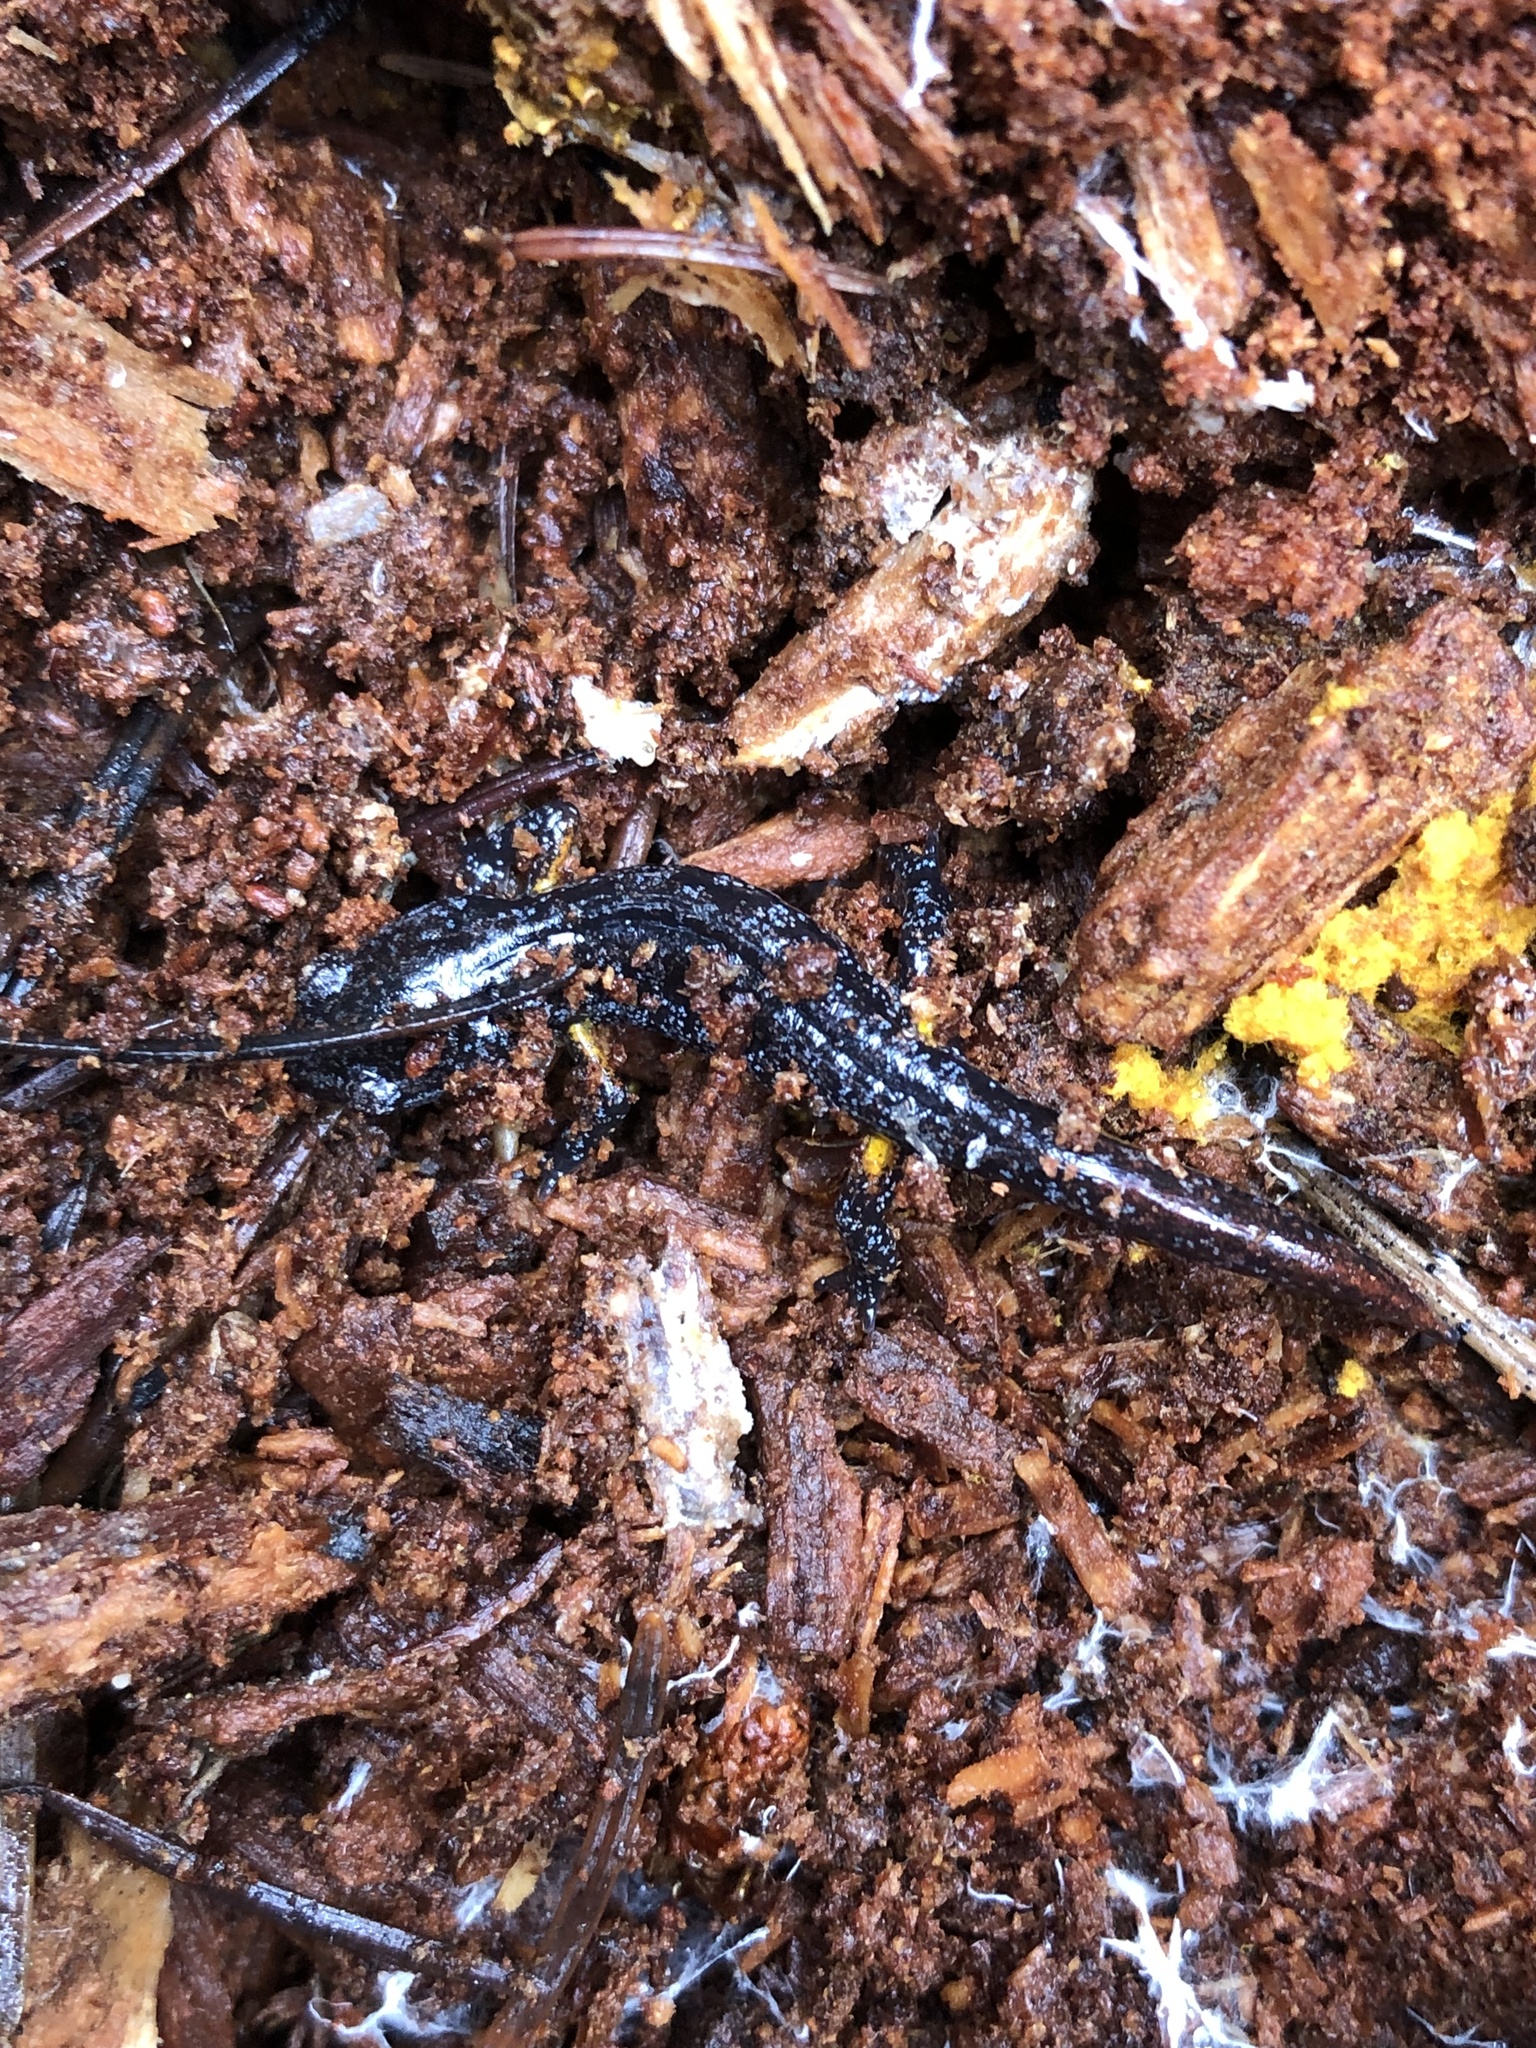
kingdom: Animalia
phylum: Chordata
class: Amphibia
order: Caudata
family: Plethodontidae
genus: Ensatina
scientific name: Ensatina eschscholtzii
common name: Ensatina
